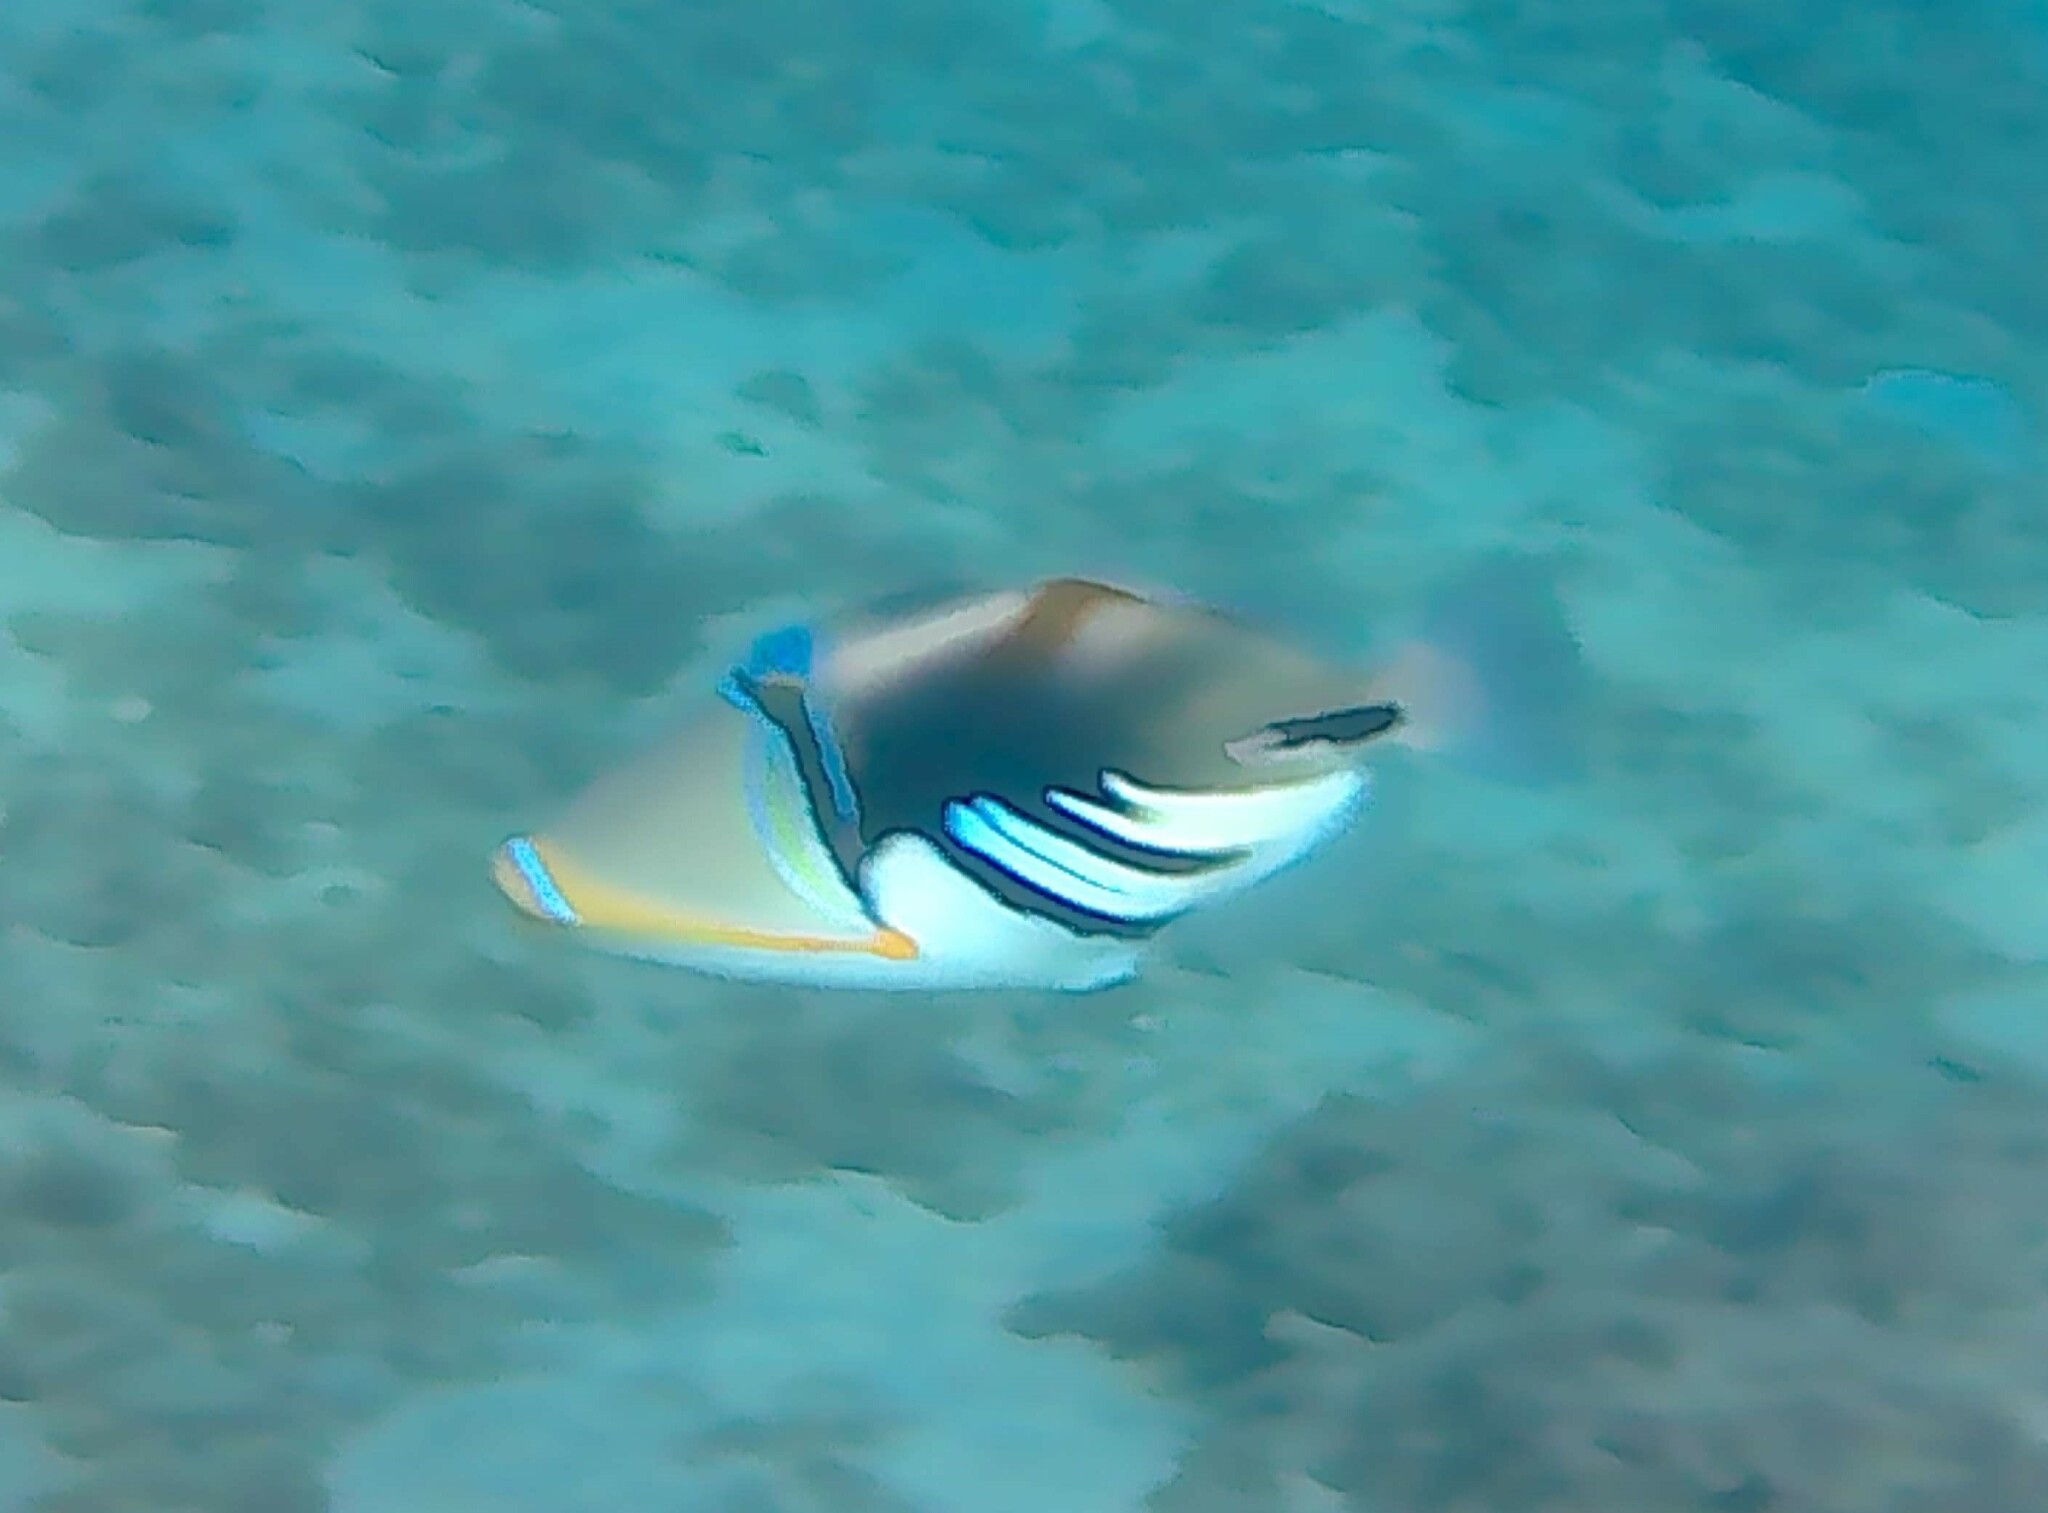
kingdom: Animalia
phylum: Chordata
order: Tetraodontiformes
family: Balistidae
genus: Rhinecanthus
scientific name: Rhinecanthus aculeatus
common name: White-banded triggerfish
